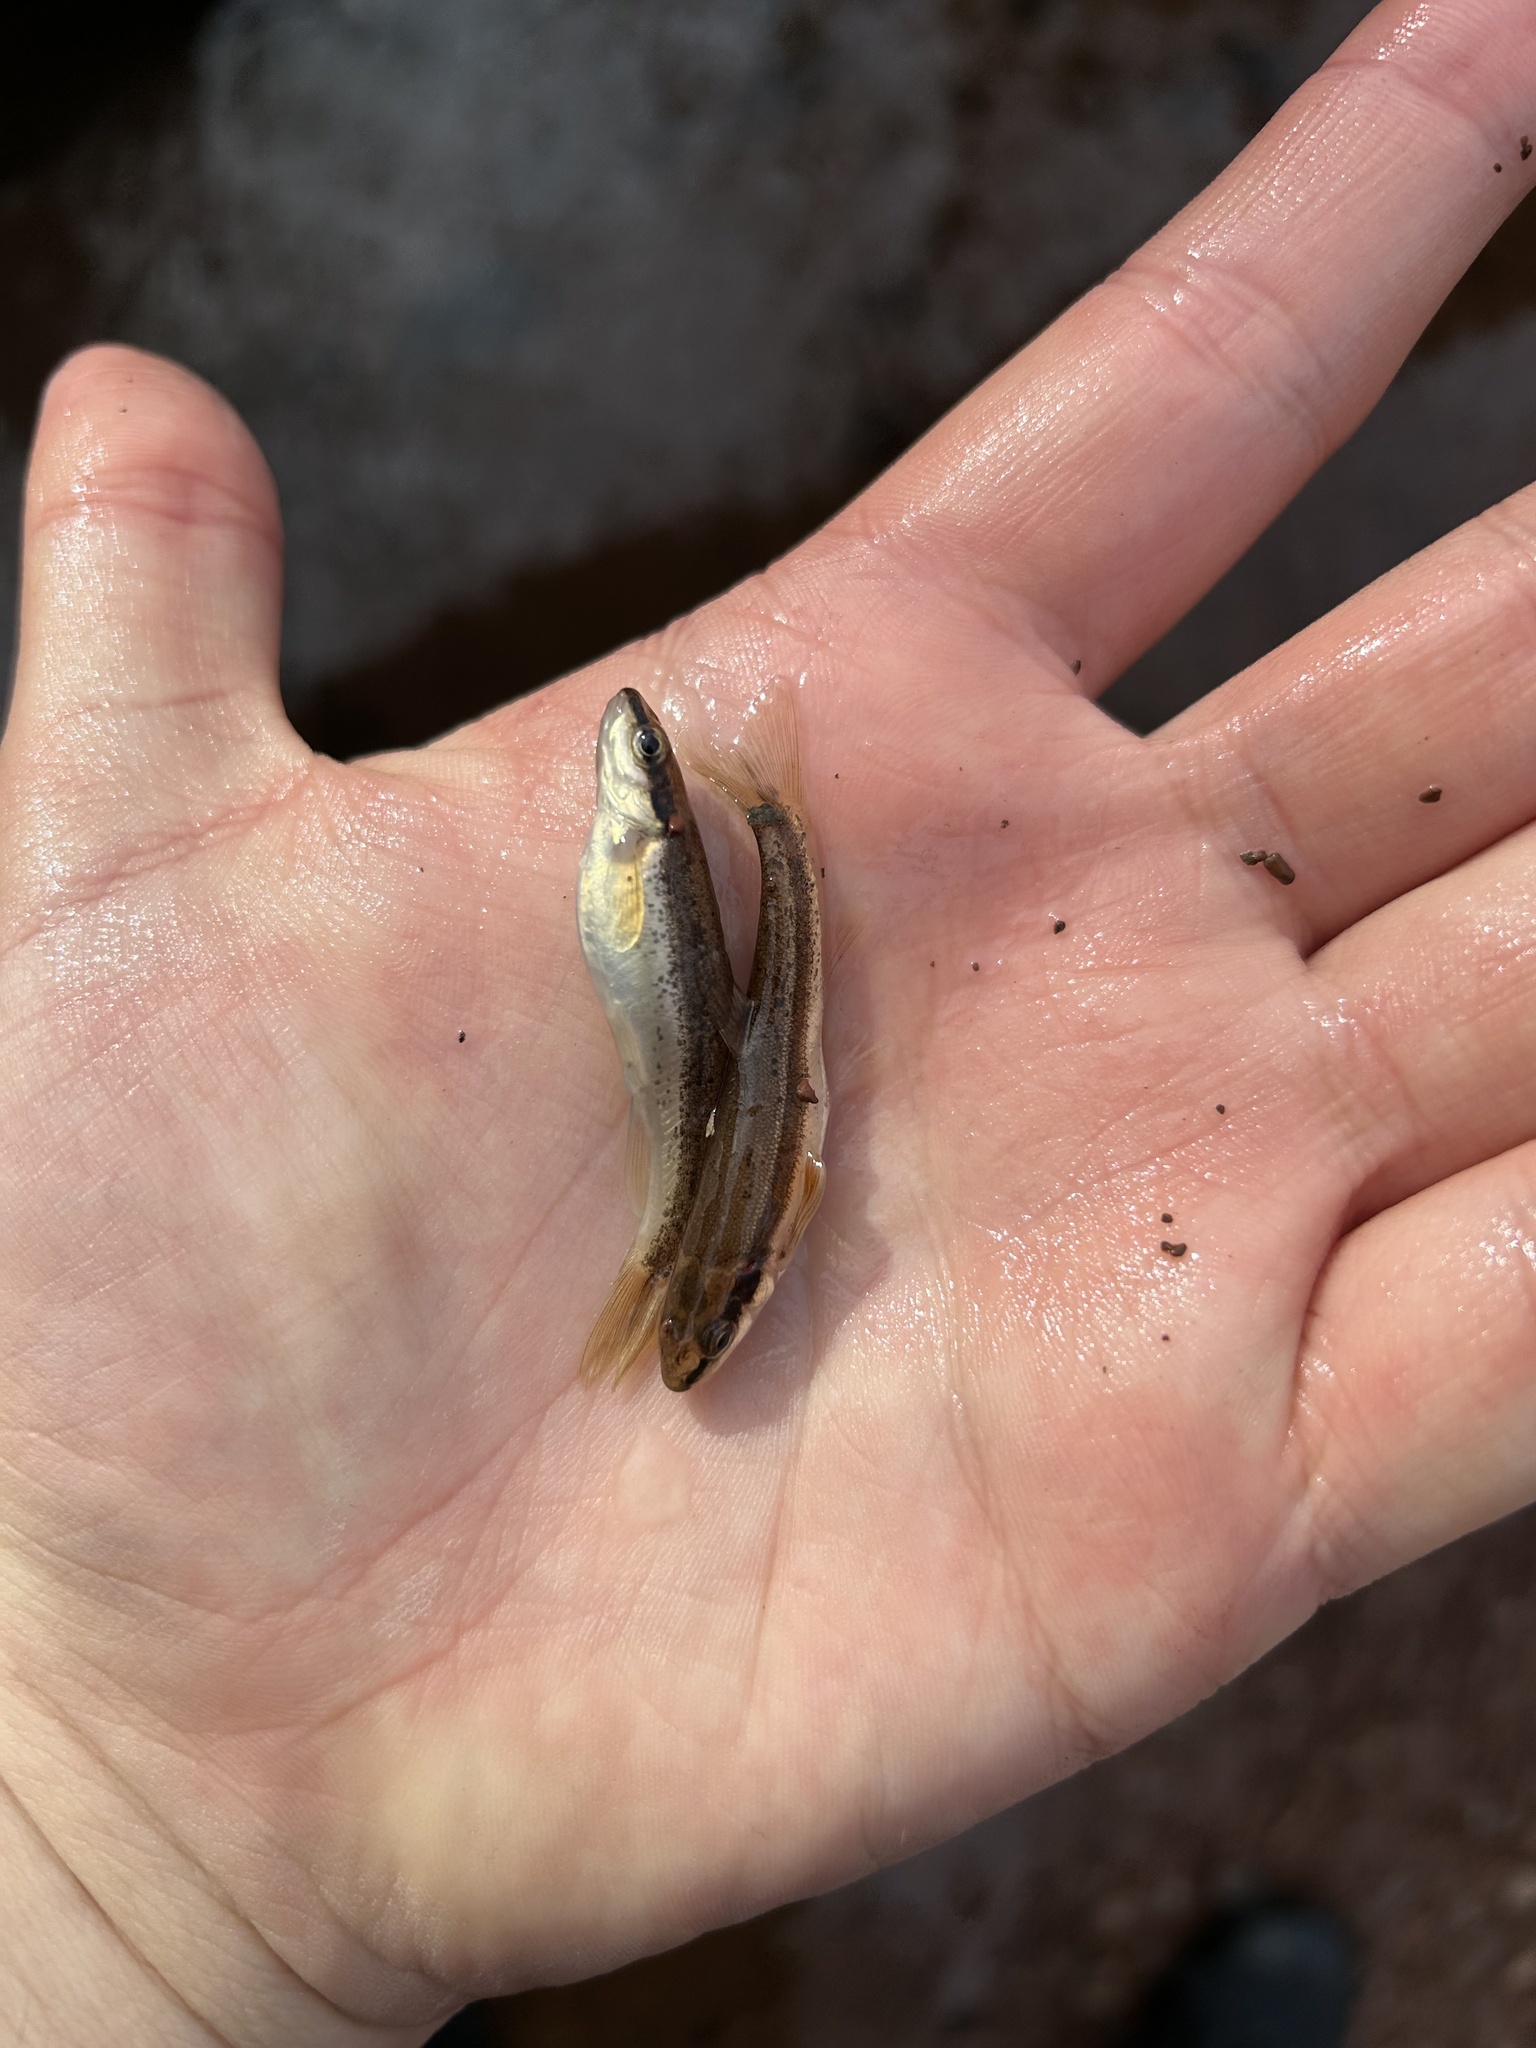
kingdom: Animalia
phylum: Chordata
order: Cypriniformes
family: Cyprinidae
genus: Rhinichthys
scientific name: Rhinichthys atratulus
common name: Eastern blacknose dace
